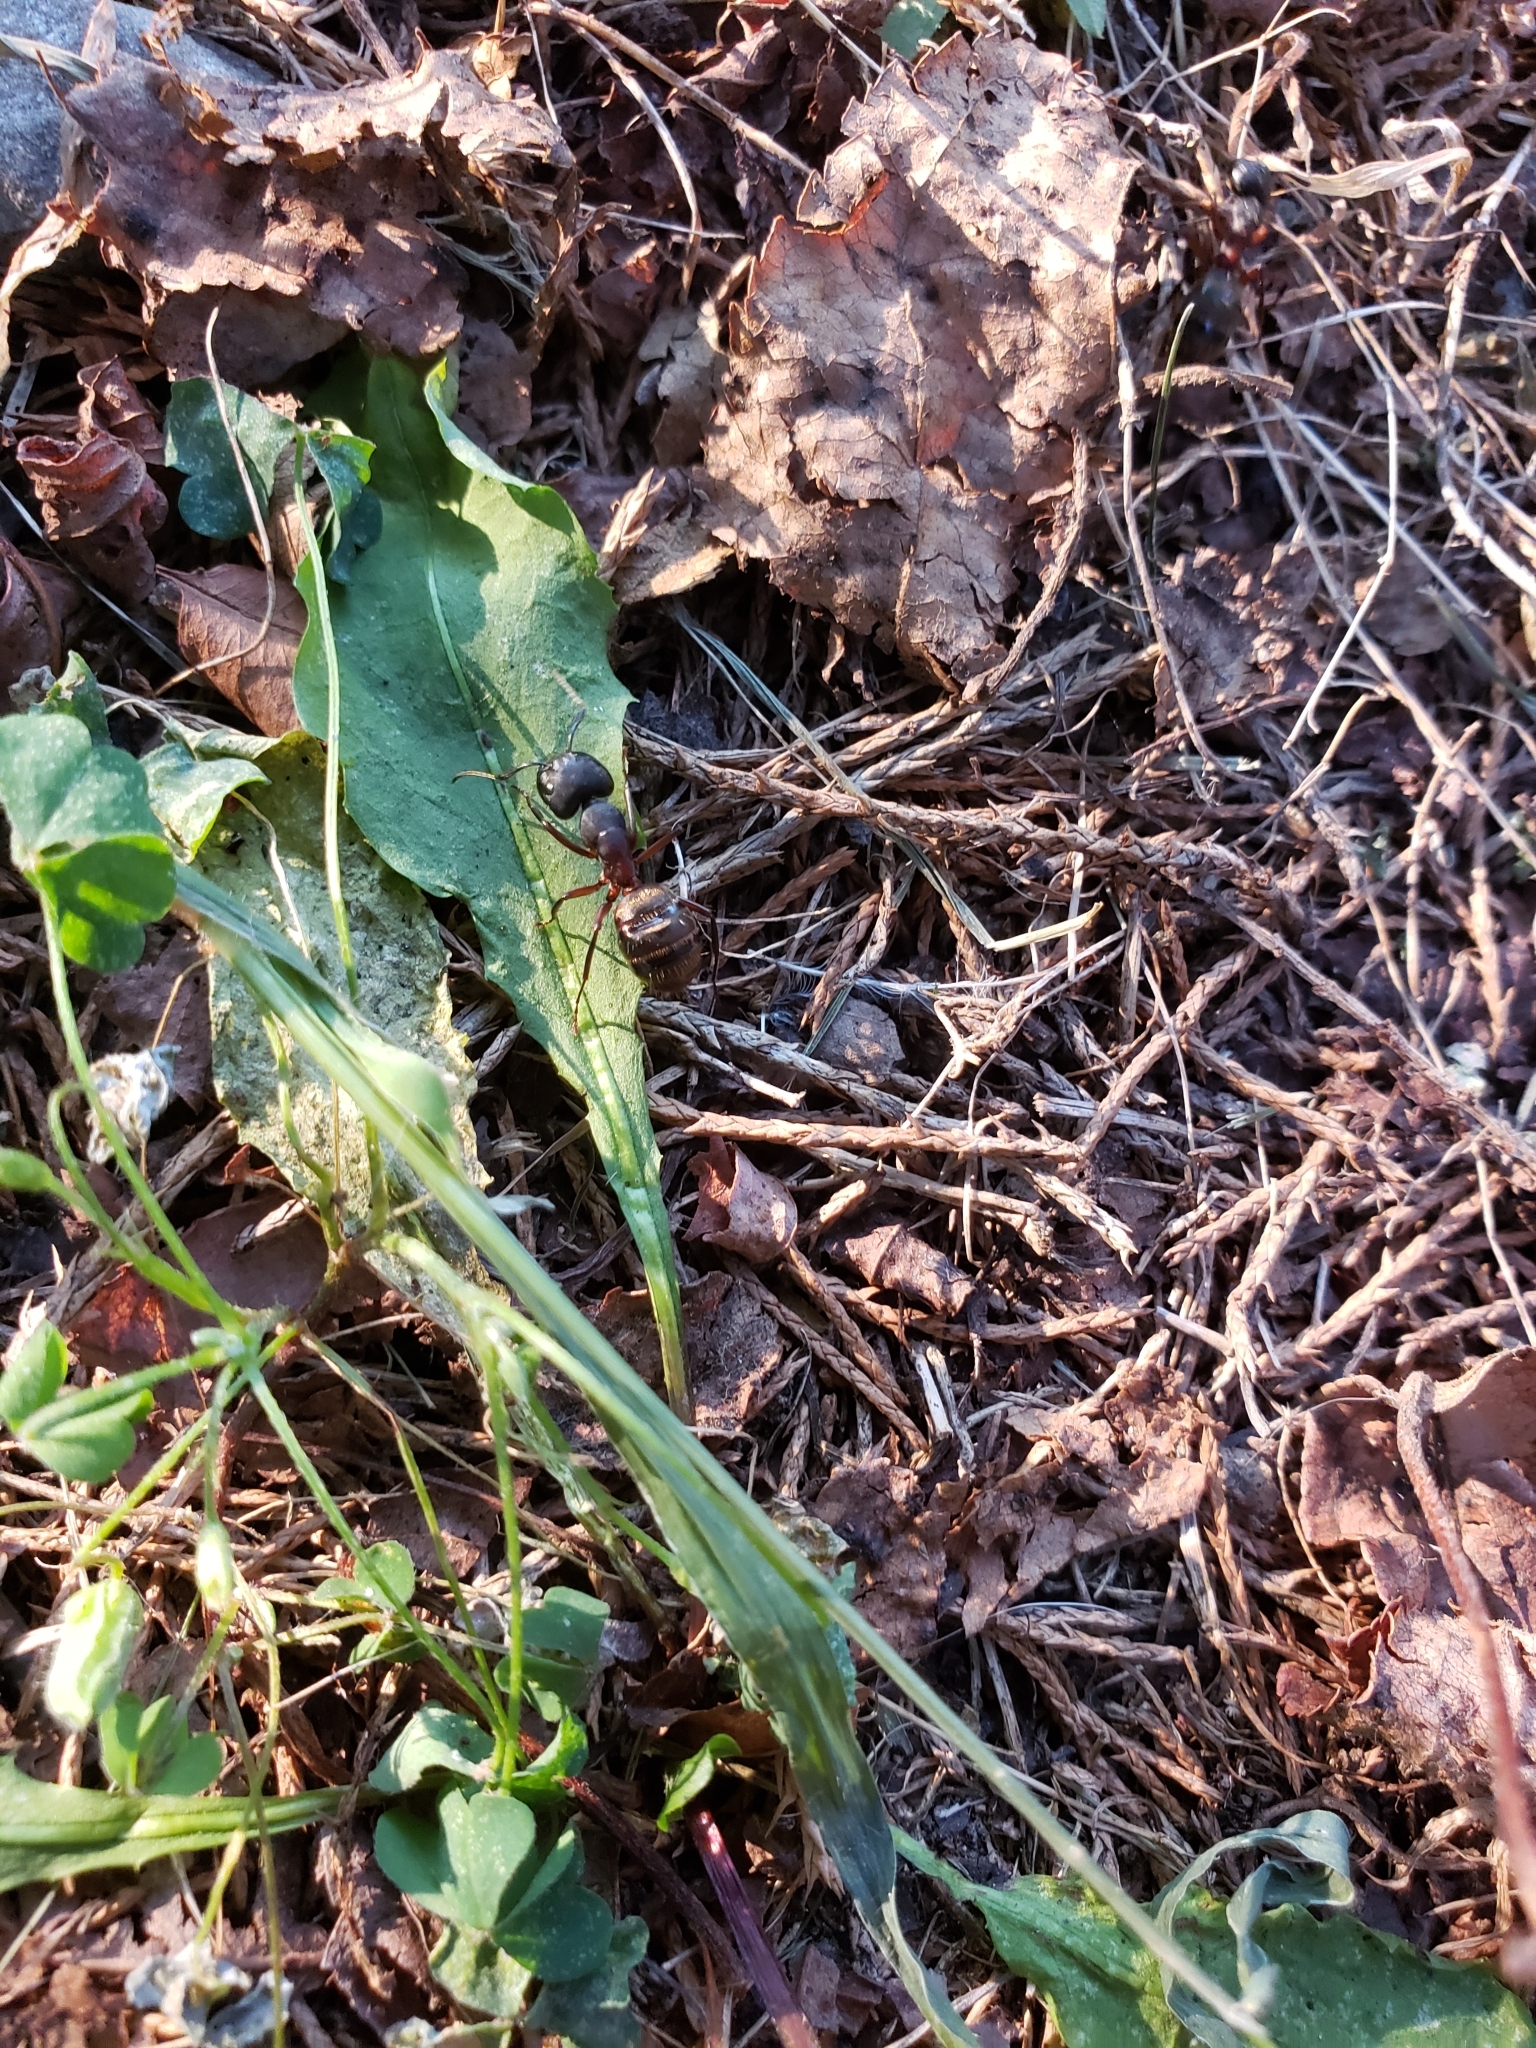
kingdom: Animalia
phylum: Arthropoda
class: Insecta
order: Hymenoptera
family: Formicidae
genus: Camponotus
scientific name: Camponotus chromaiodes
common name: Red carpenter ant
